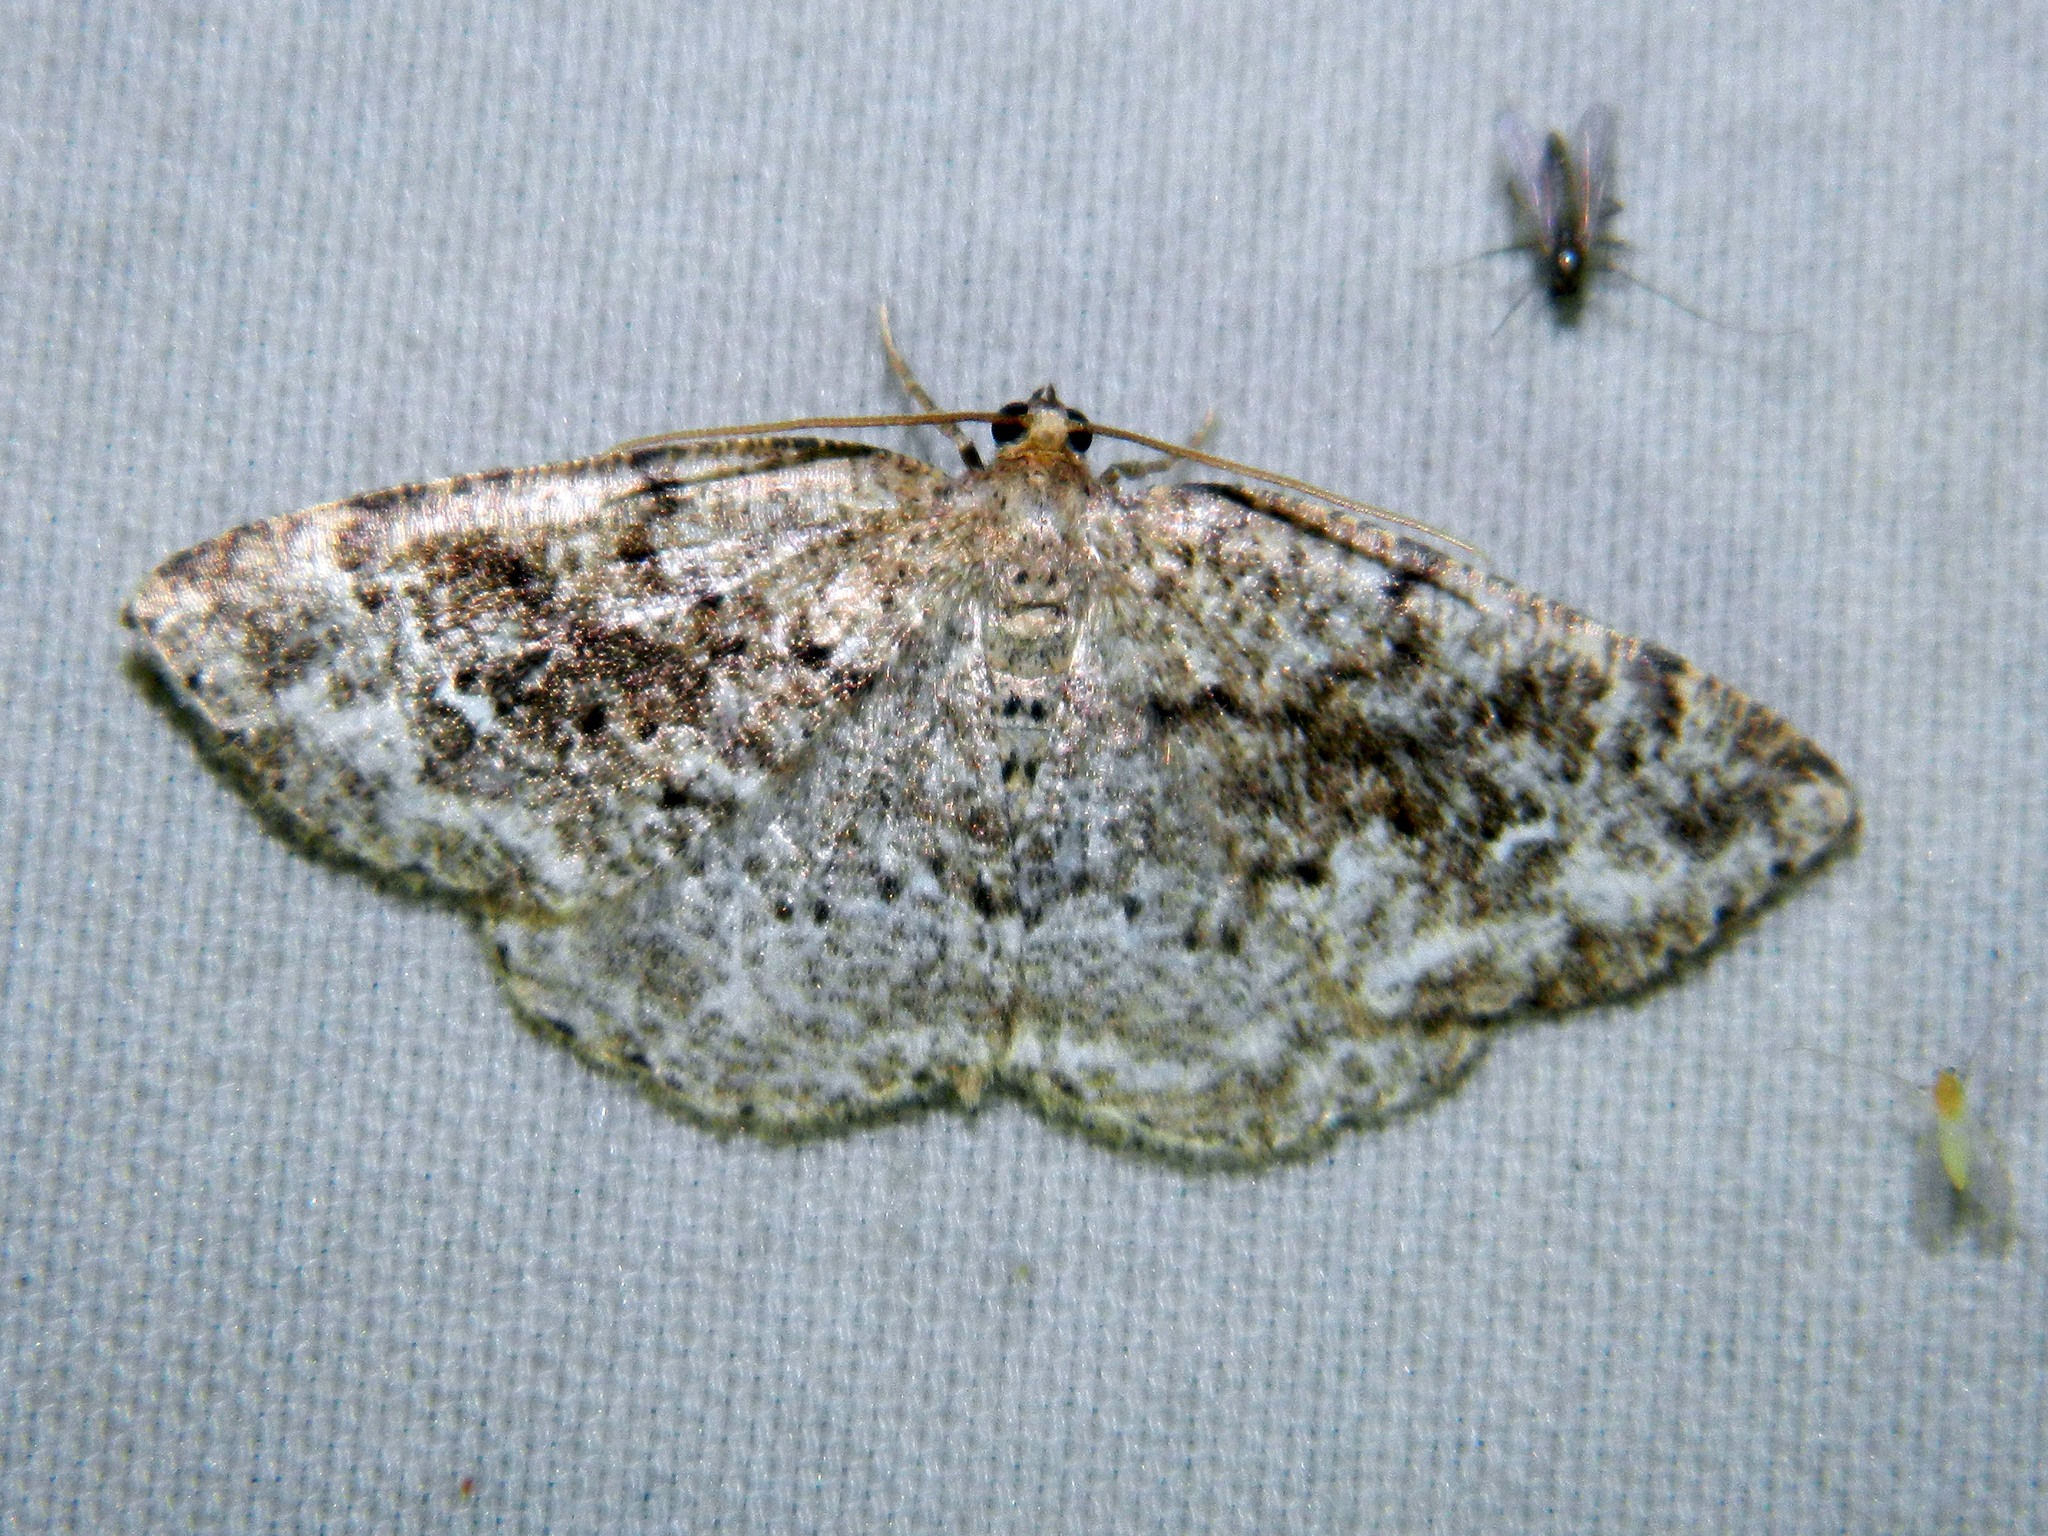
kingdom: Animalia
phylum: Arthropoda
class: Insecta
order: Lepidoptera
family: Geometridae
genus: Homochlodes
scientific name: Homochlodes fritillaria
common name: Pale homochlodes
